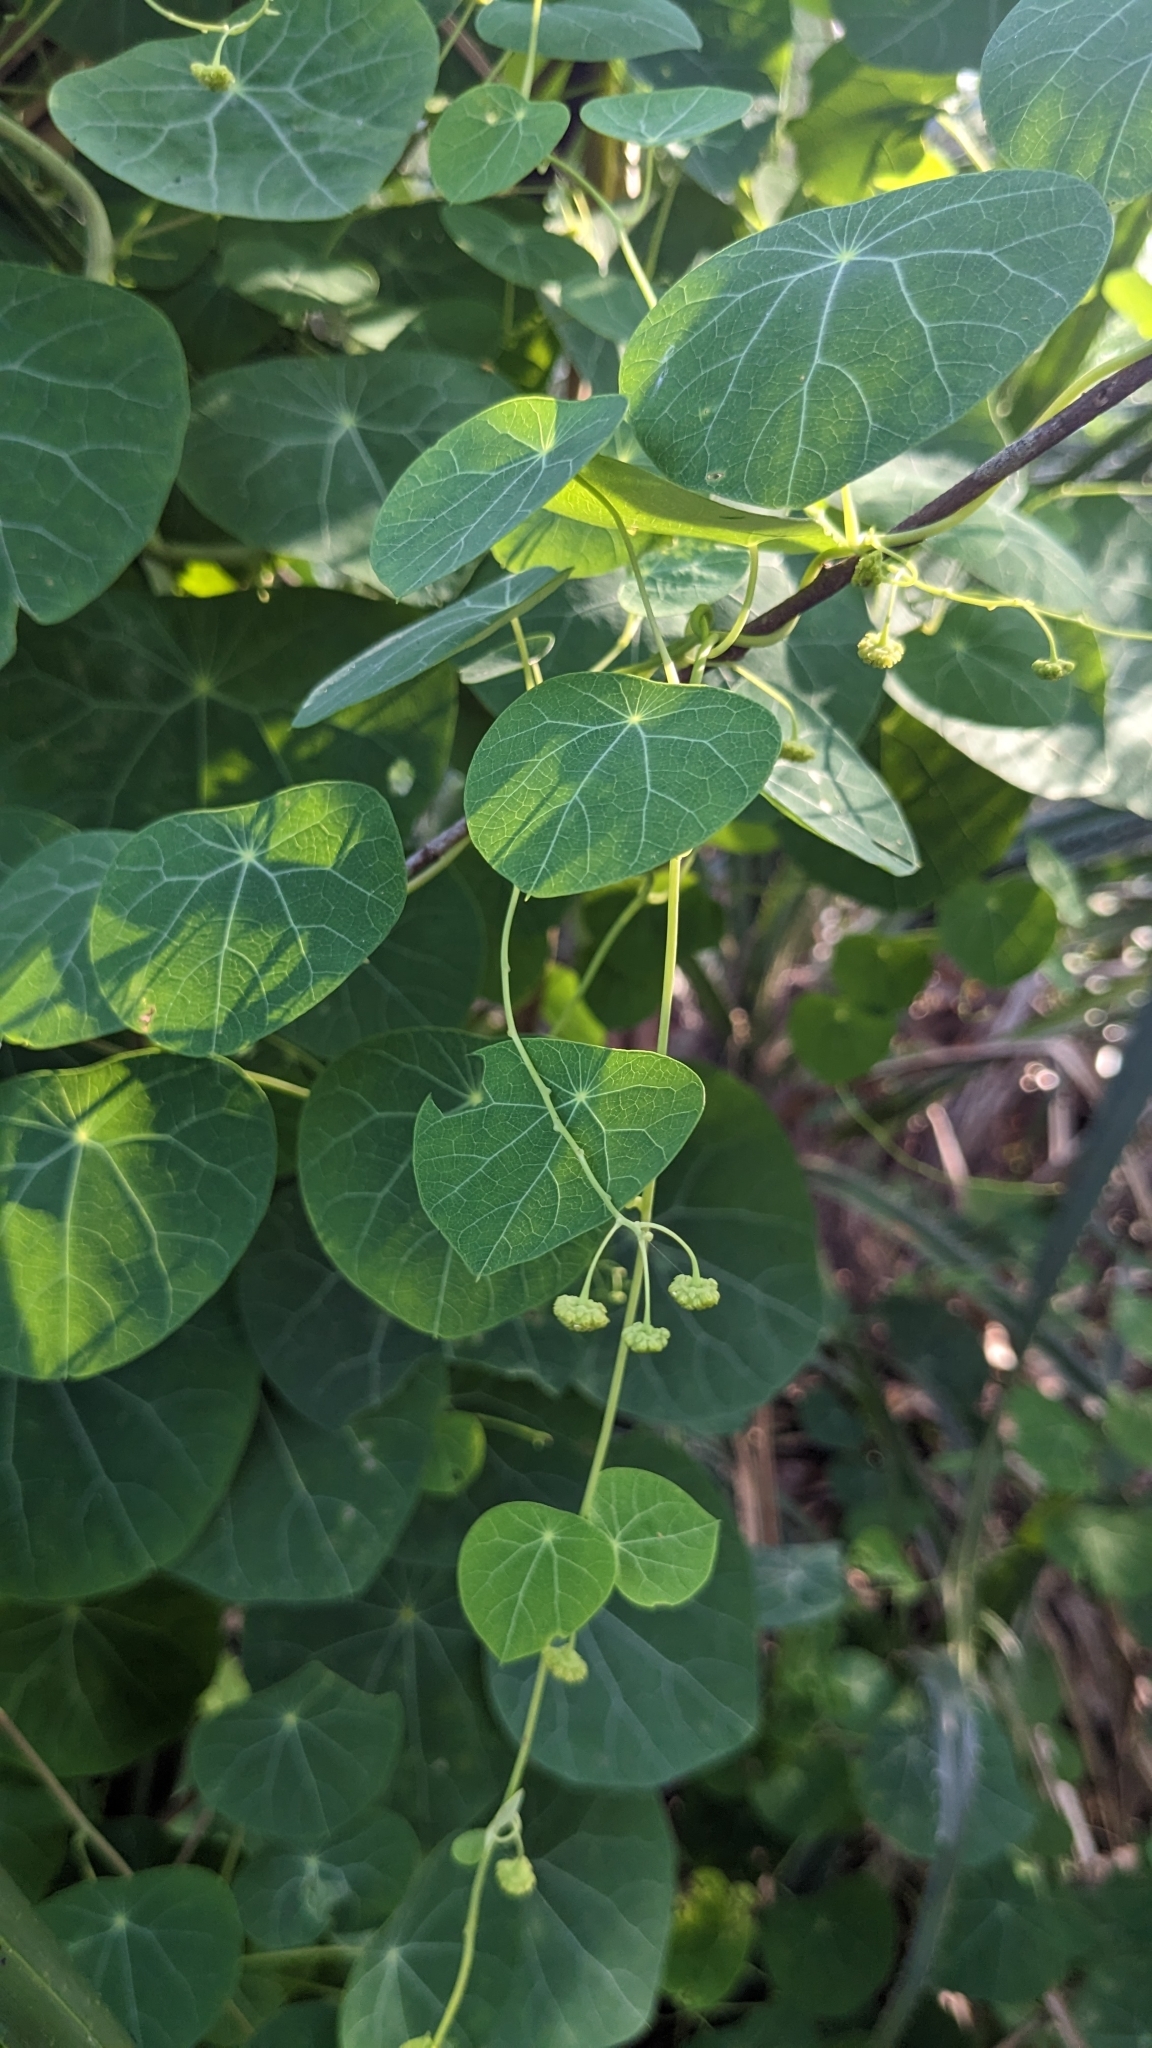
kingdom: Plantae
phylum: Tracheophyta
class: Magnoliopsida
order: Ranunculales
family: Menispermaceae
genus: Stephania
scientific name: Stephania cephalantha
